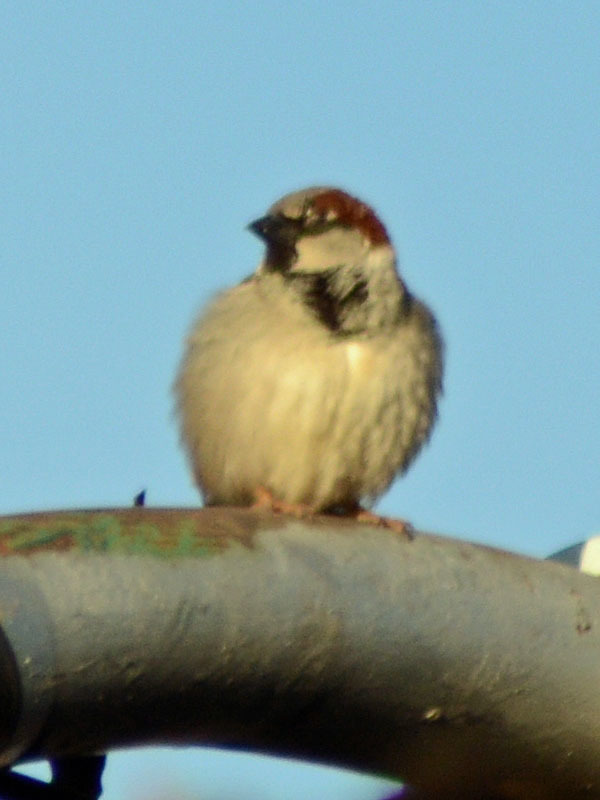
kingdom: Animalia
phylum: Chordata
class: Aves
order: Passeriformes
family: Passeridae
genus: Passer
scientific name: Passer domesticus
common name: House sparrow
